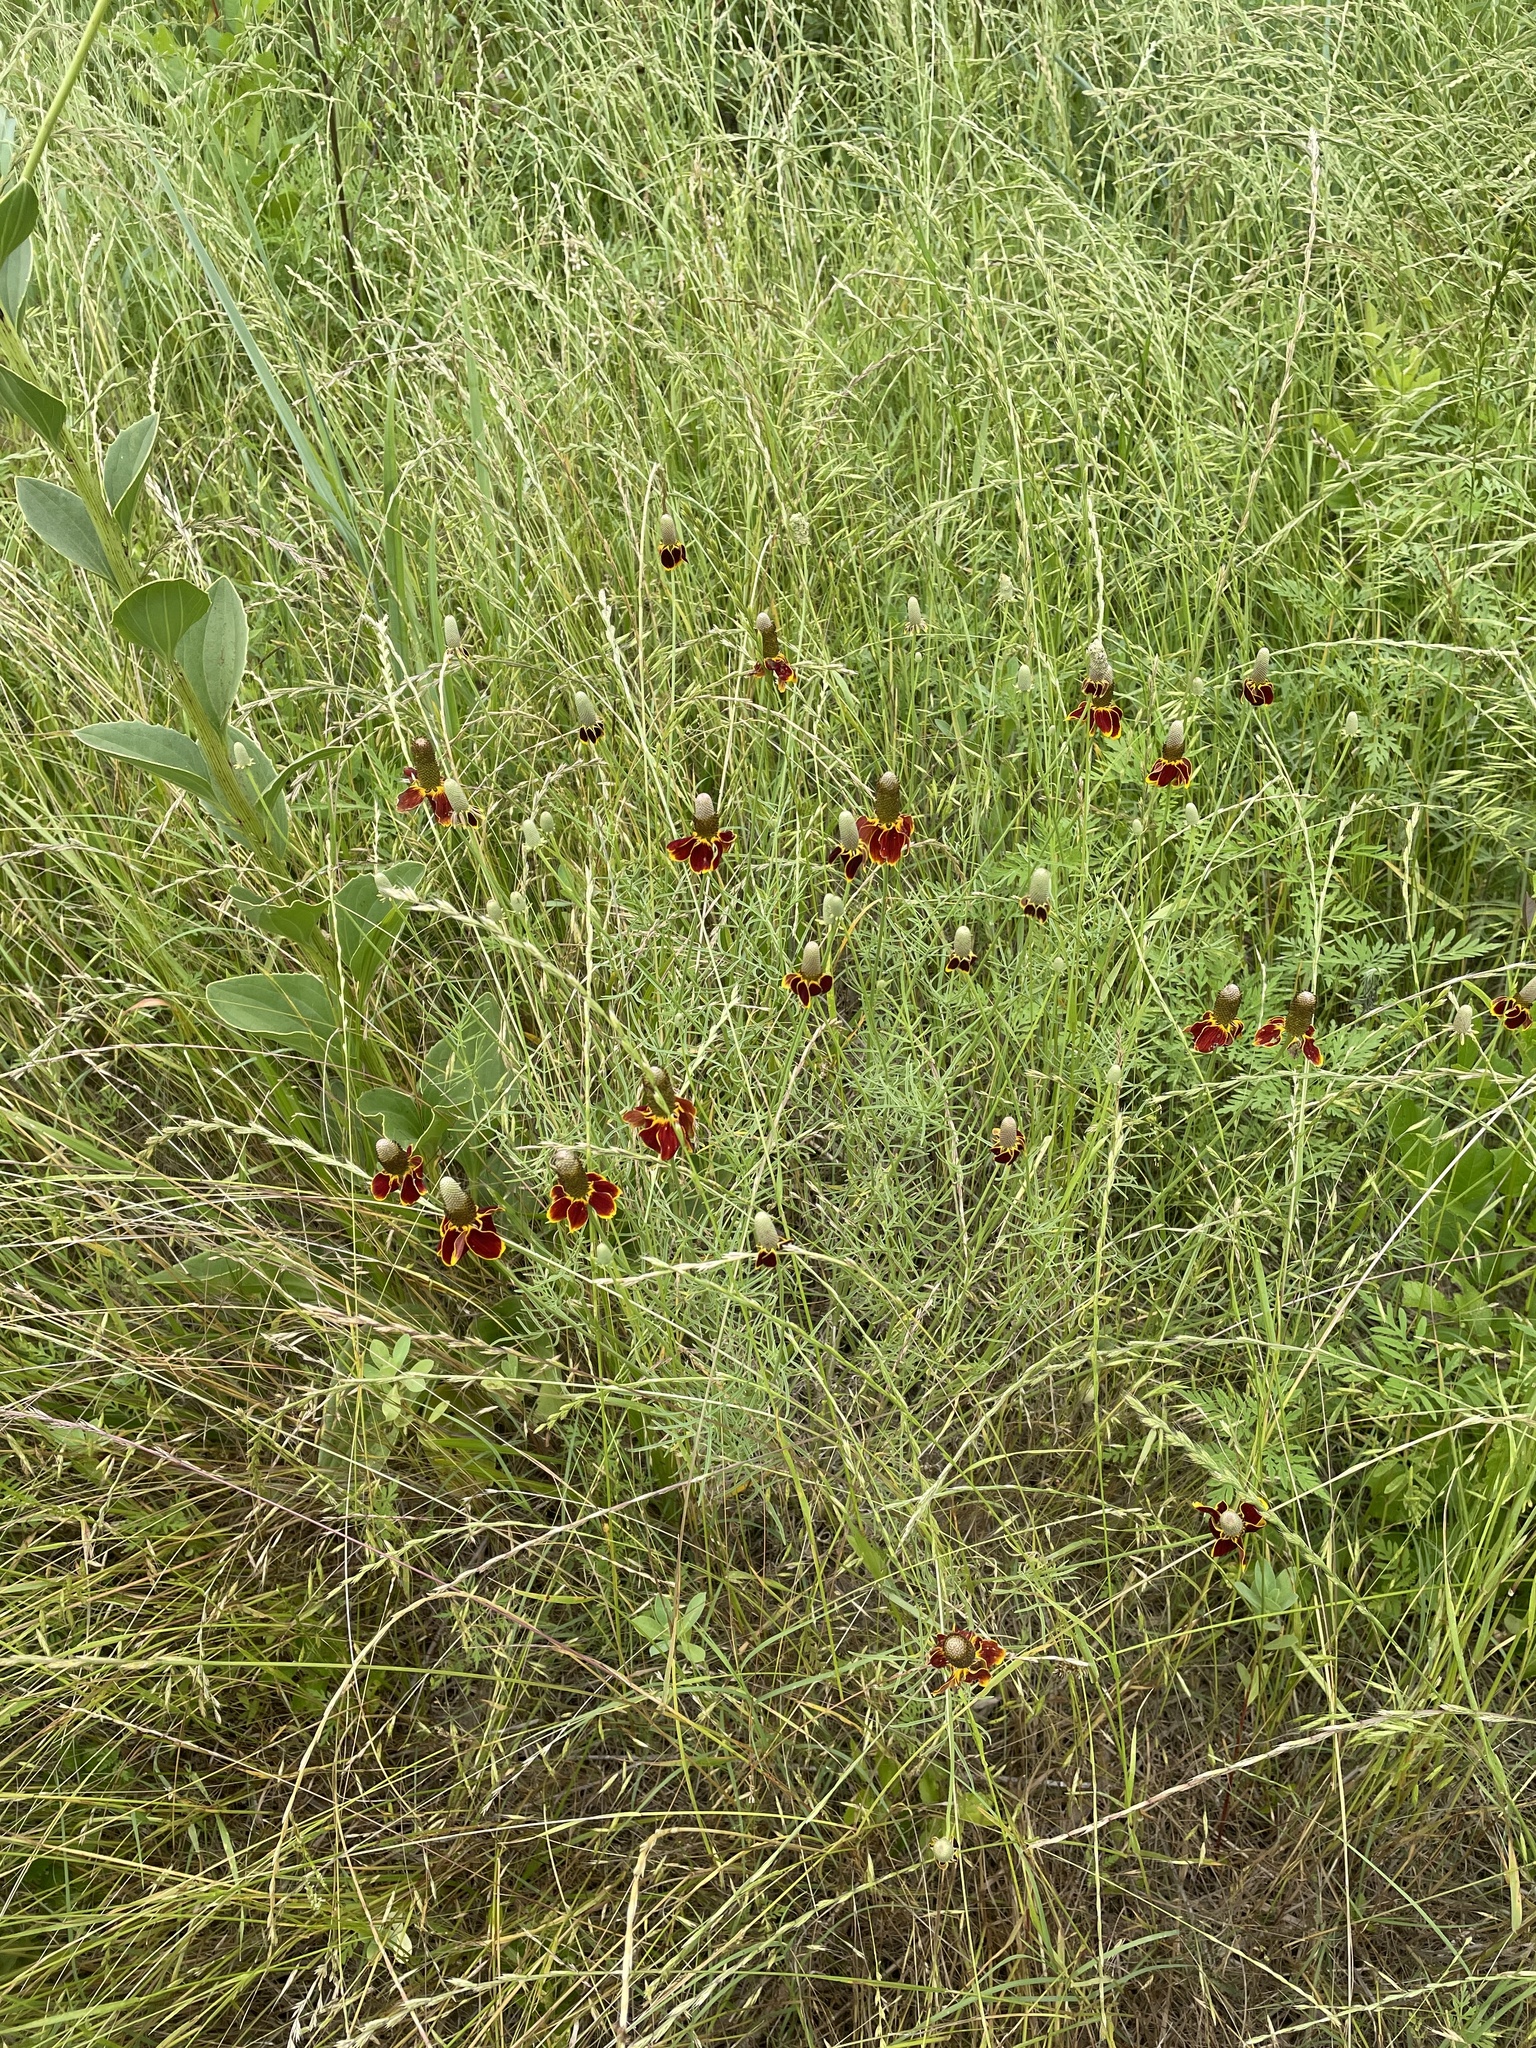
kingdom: Plantae
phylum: Tracheophyta
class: Magnoliopsida
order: Asterales
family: Asteraceae
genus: Ratibida
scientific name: Ratibida columnifera
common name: Prairie coneflower
